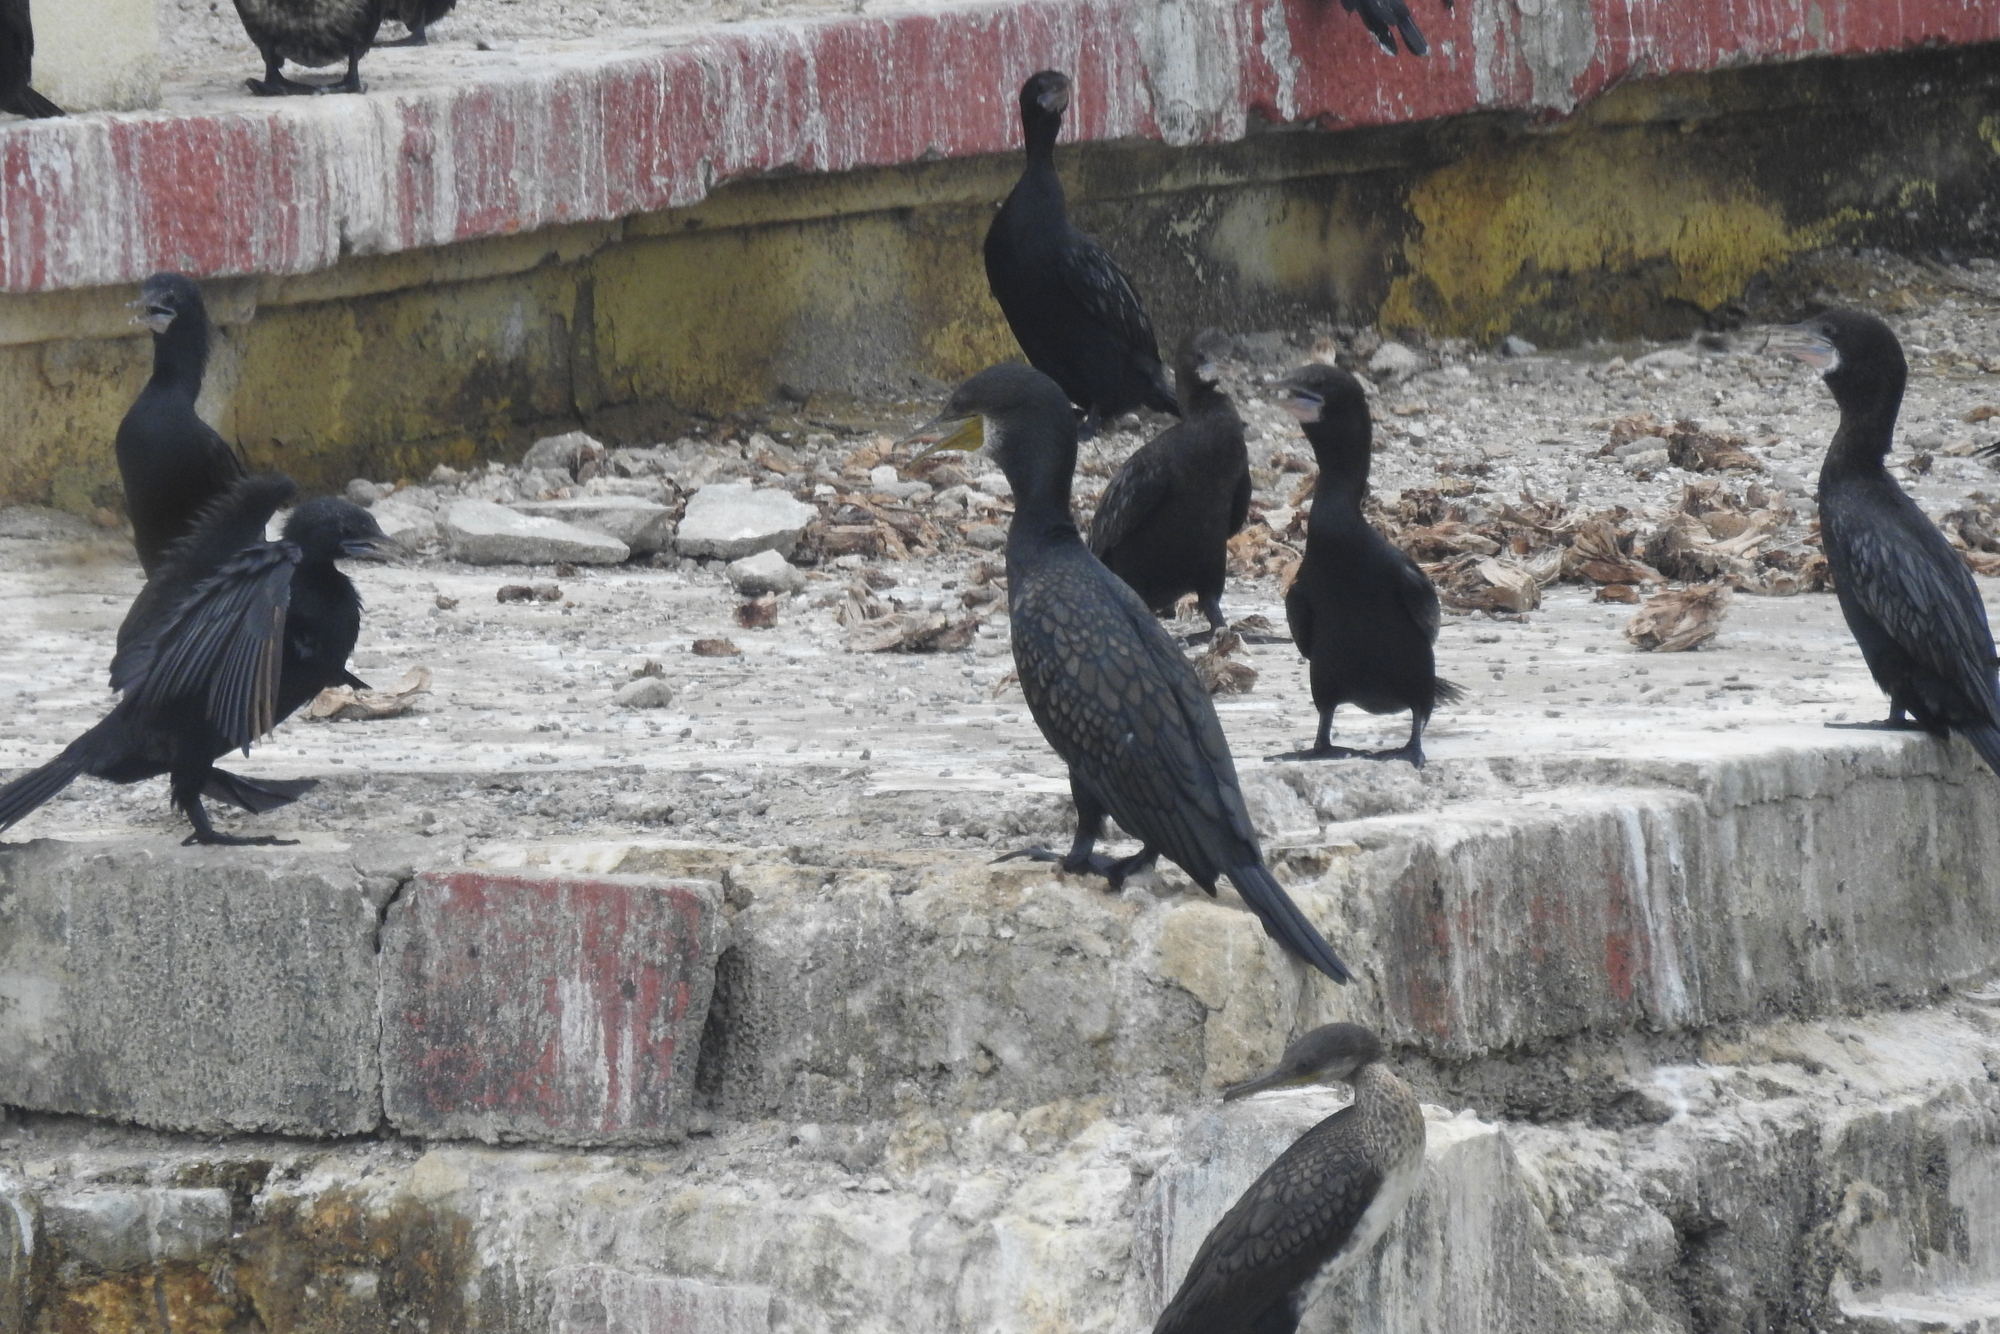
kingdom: Animalia
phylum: Chordata
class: Aves
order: Suliformes
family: Phalacrocoracidae
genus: Phalacrocorax
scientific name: Phalacrocorax fuscicollis
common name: Indian cormorant
